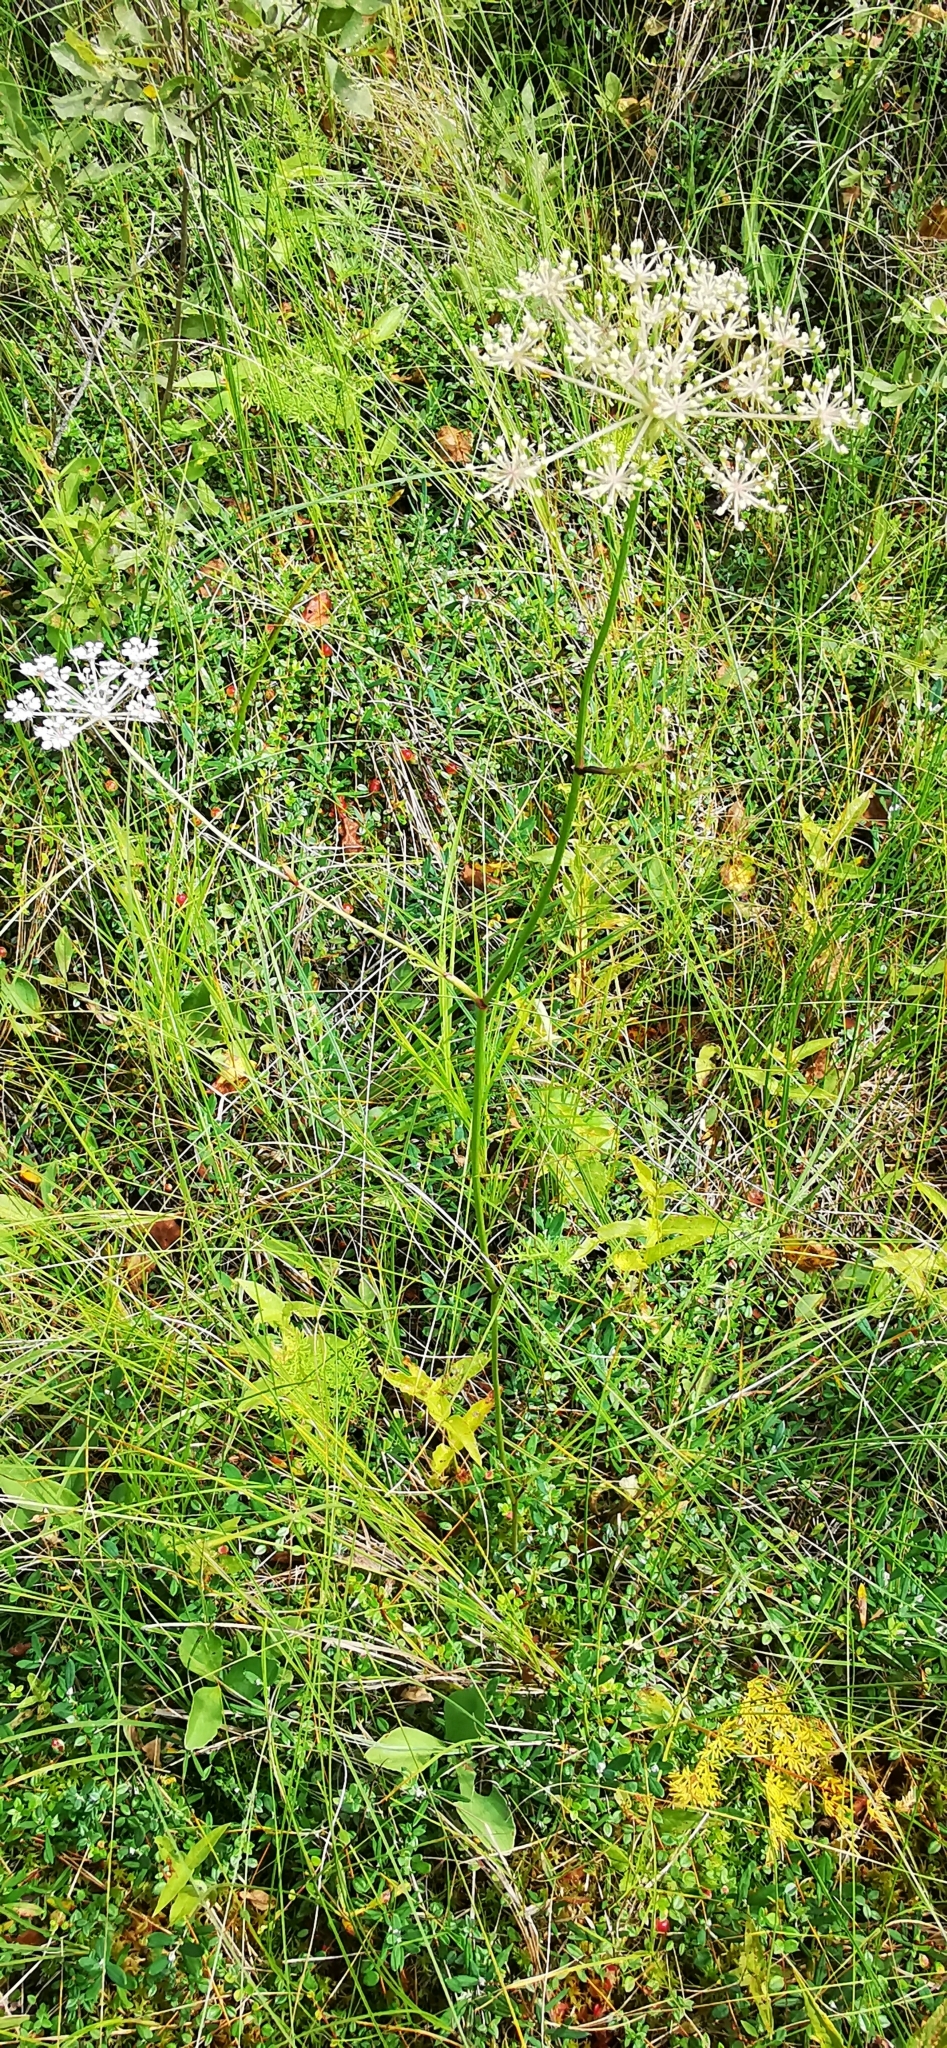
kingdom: Plantae
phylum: Tracheophyta
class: Magnoliopsida
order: Apiales
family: Apiaceae
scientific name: Apiaceae
